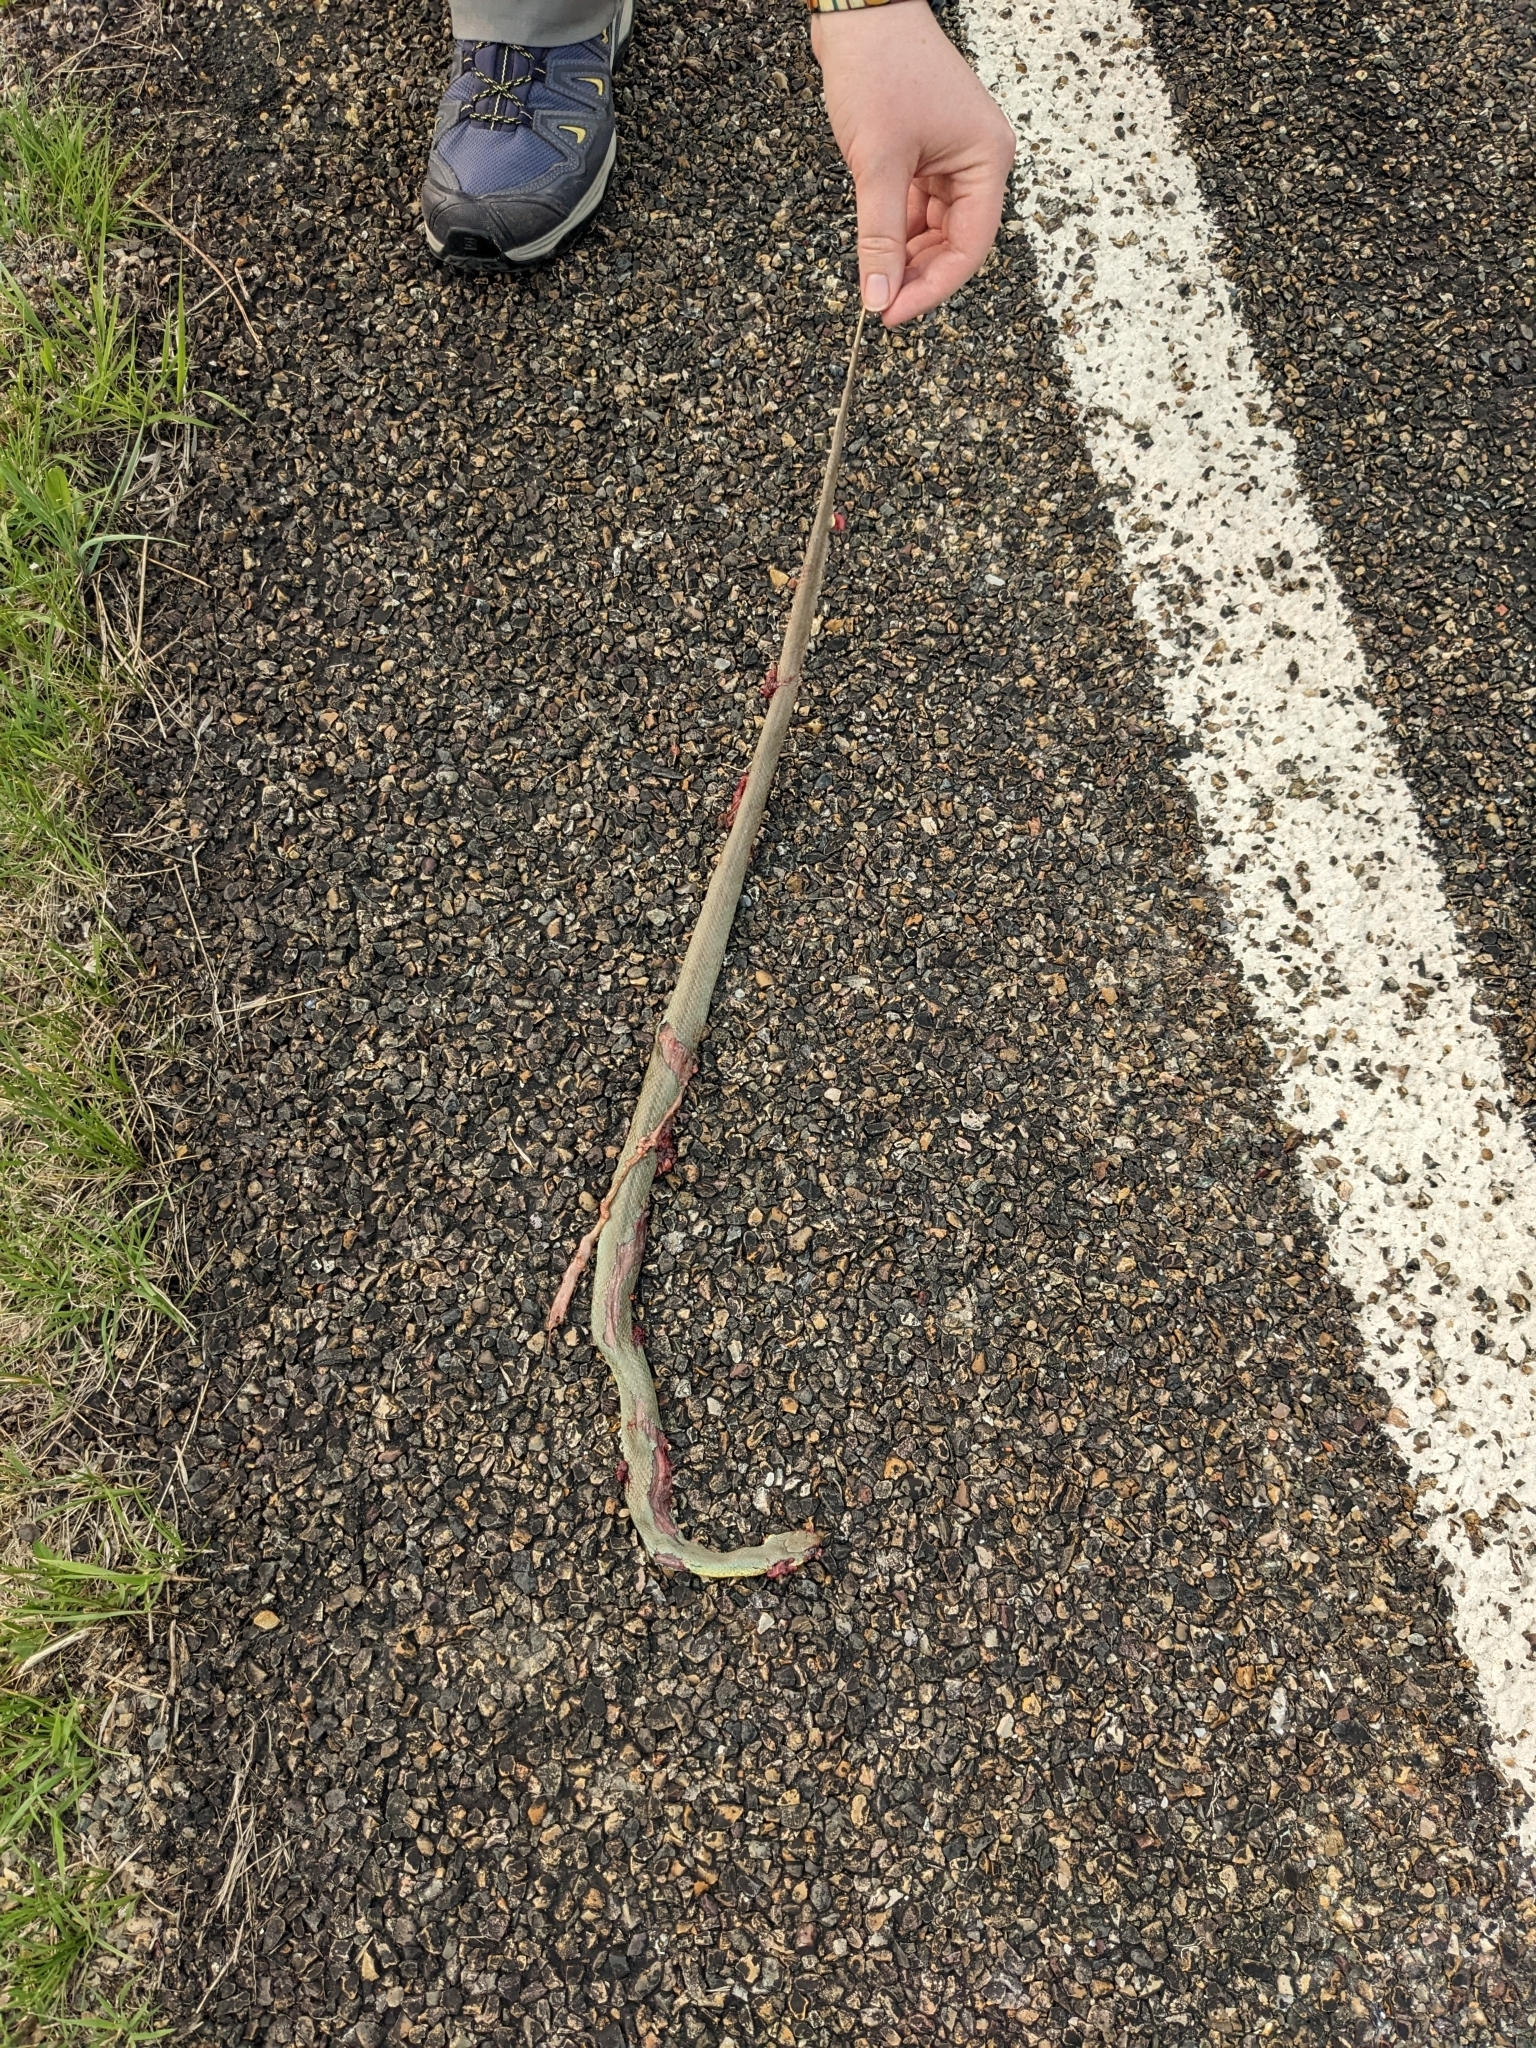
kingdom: Animalia
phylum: Chordata
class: Squamata
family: Colubridae
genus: Coluber
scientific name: Coluber constrictor
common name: Eastern racer
